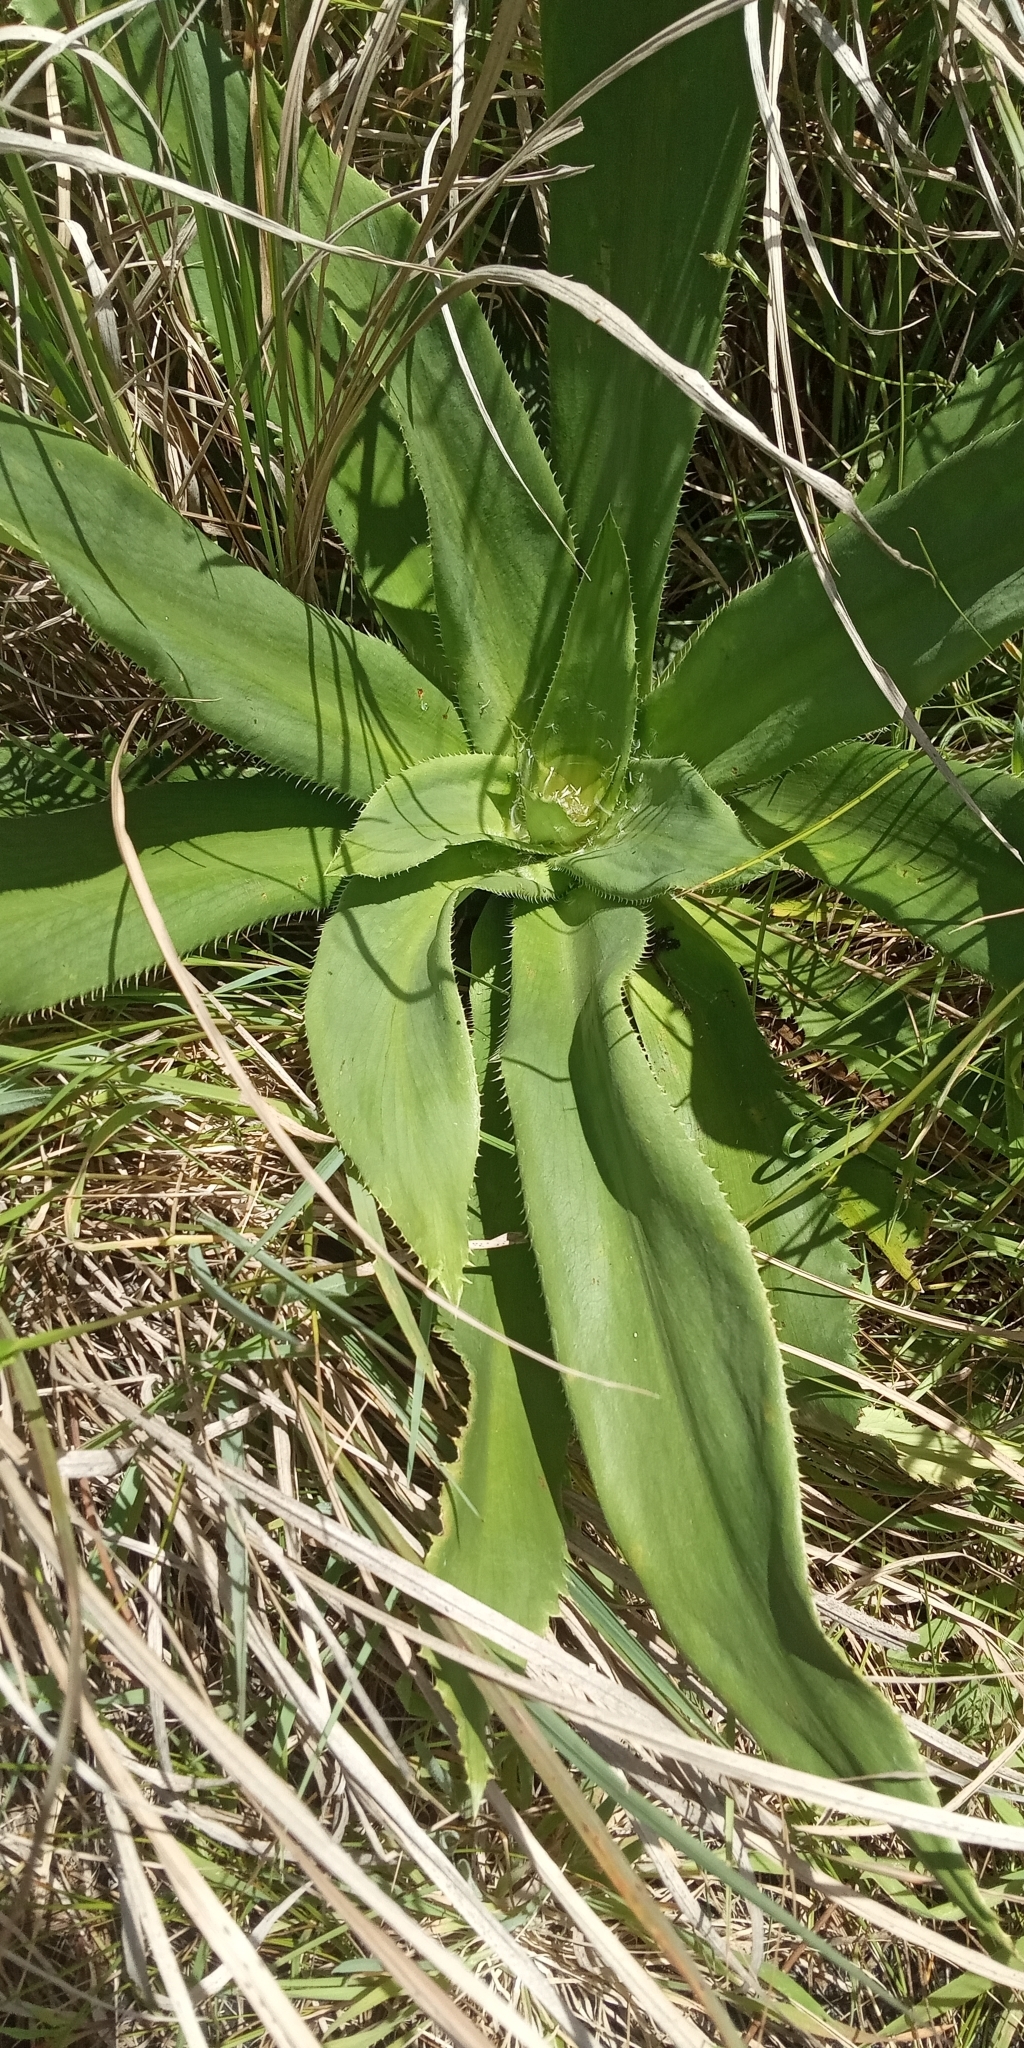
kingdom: Plantae
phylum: Tracheophyta
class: Magnoliopsida
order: Apiales
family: Apiaceae
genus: Eryngium
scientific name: Eryngium elegans
